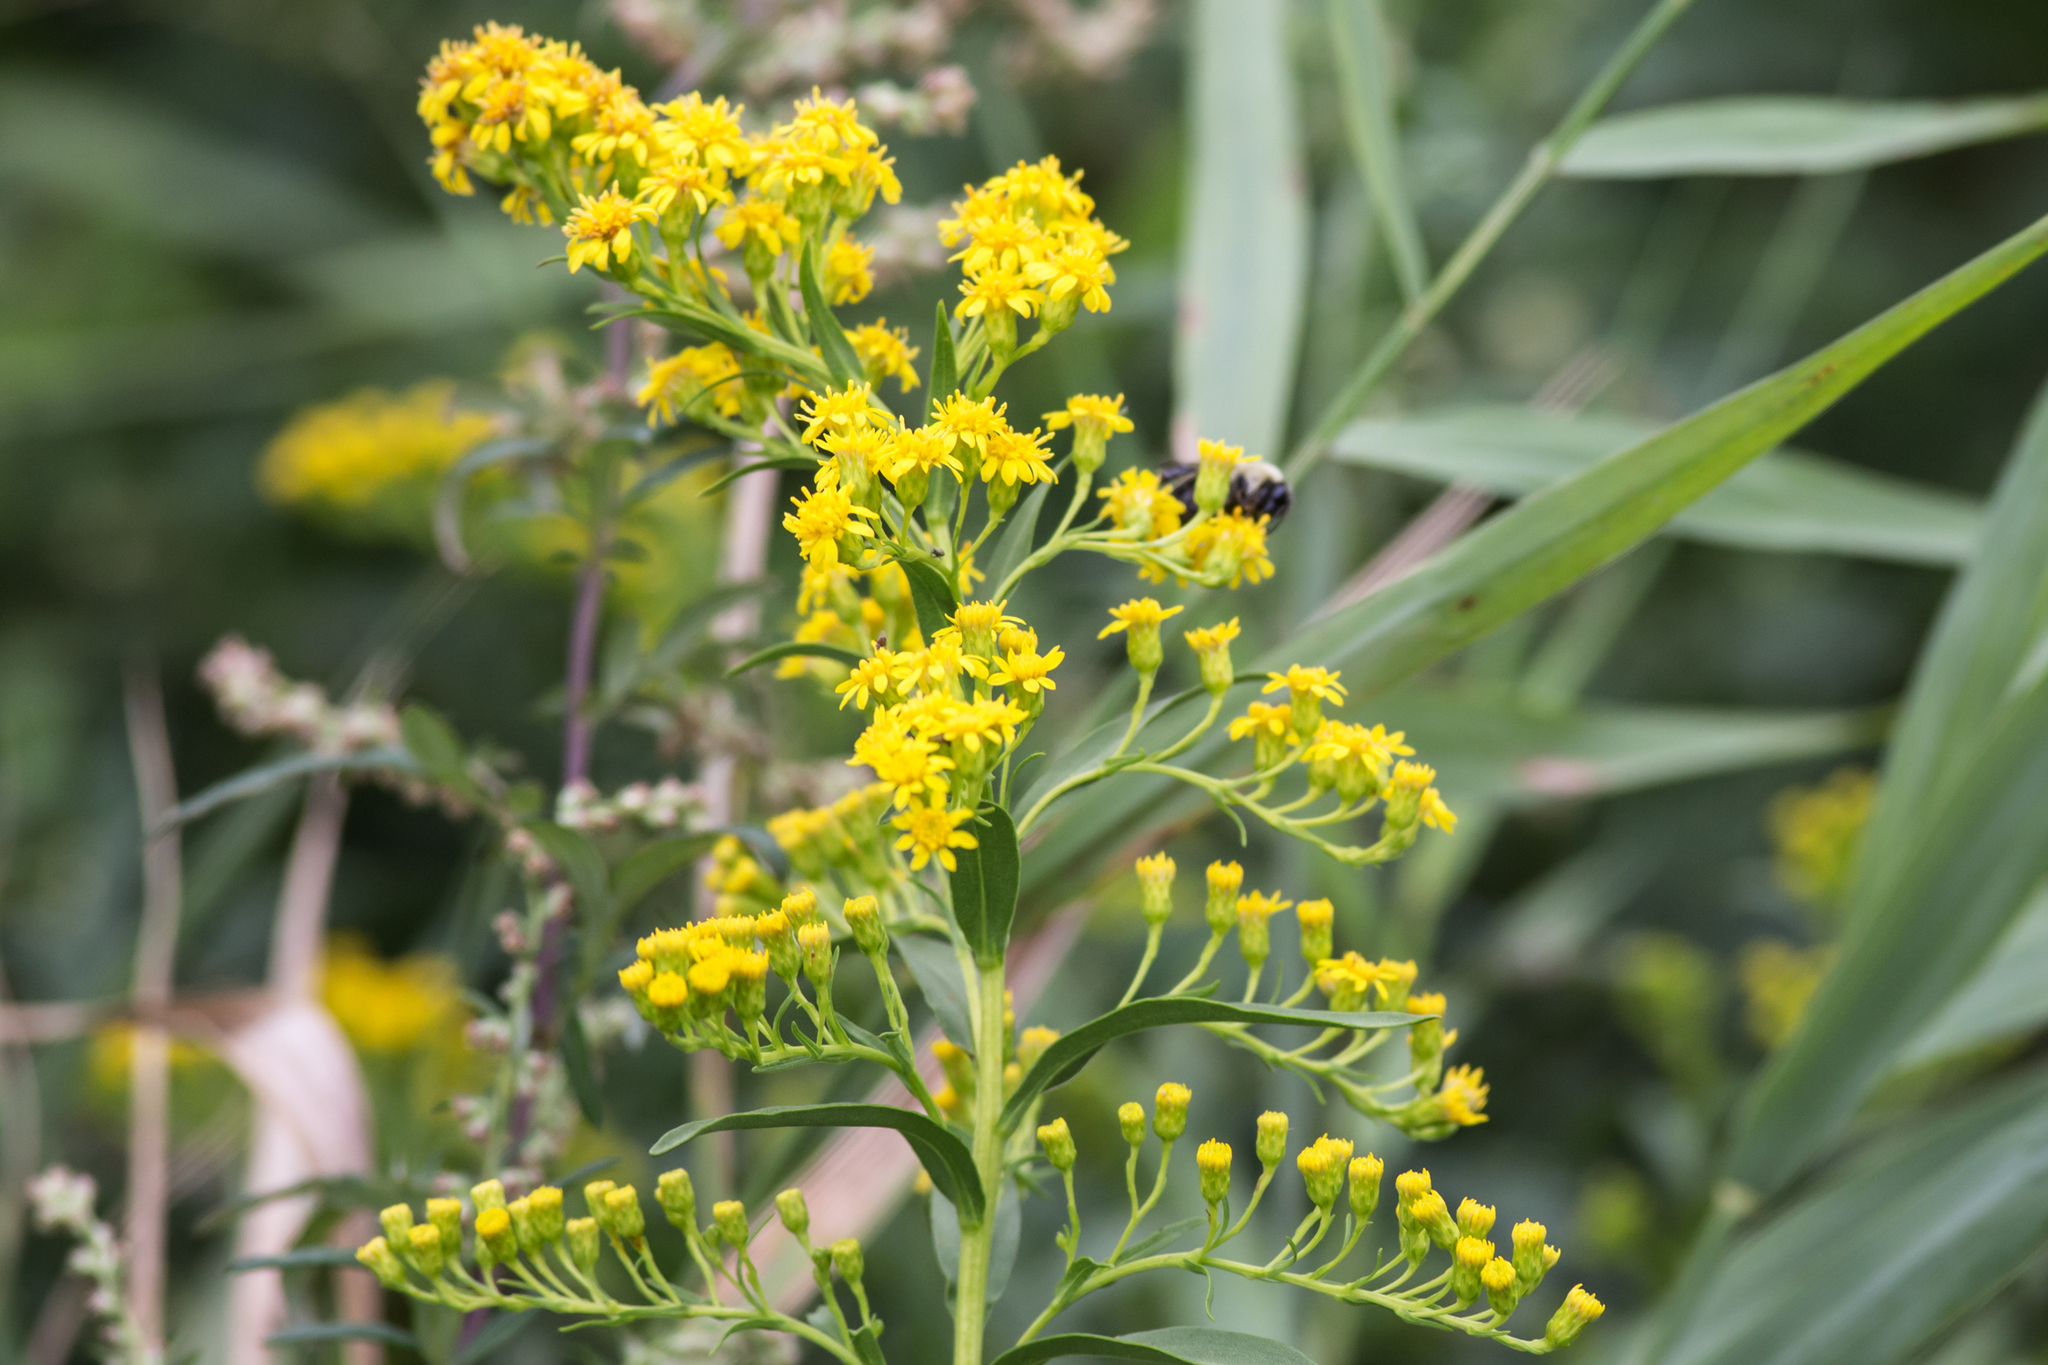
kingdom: Plantae
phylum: Tracheophyta
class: Magnoliopsida
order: Asterales
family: Asteraceae
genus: Solidago
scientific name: Solidago sempervirens
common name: Salt-marsh goldenrod
